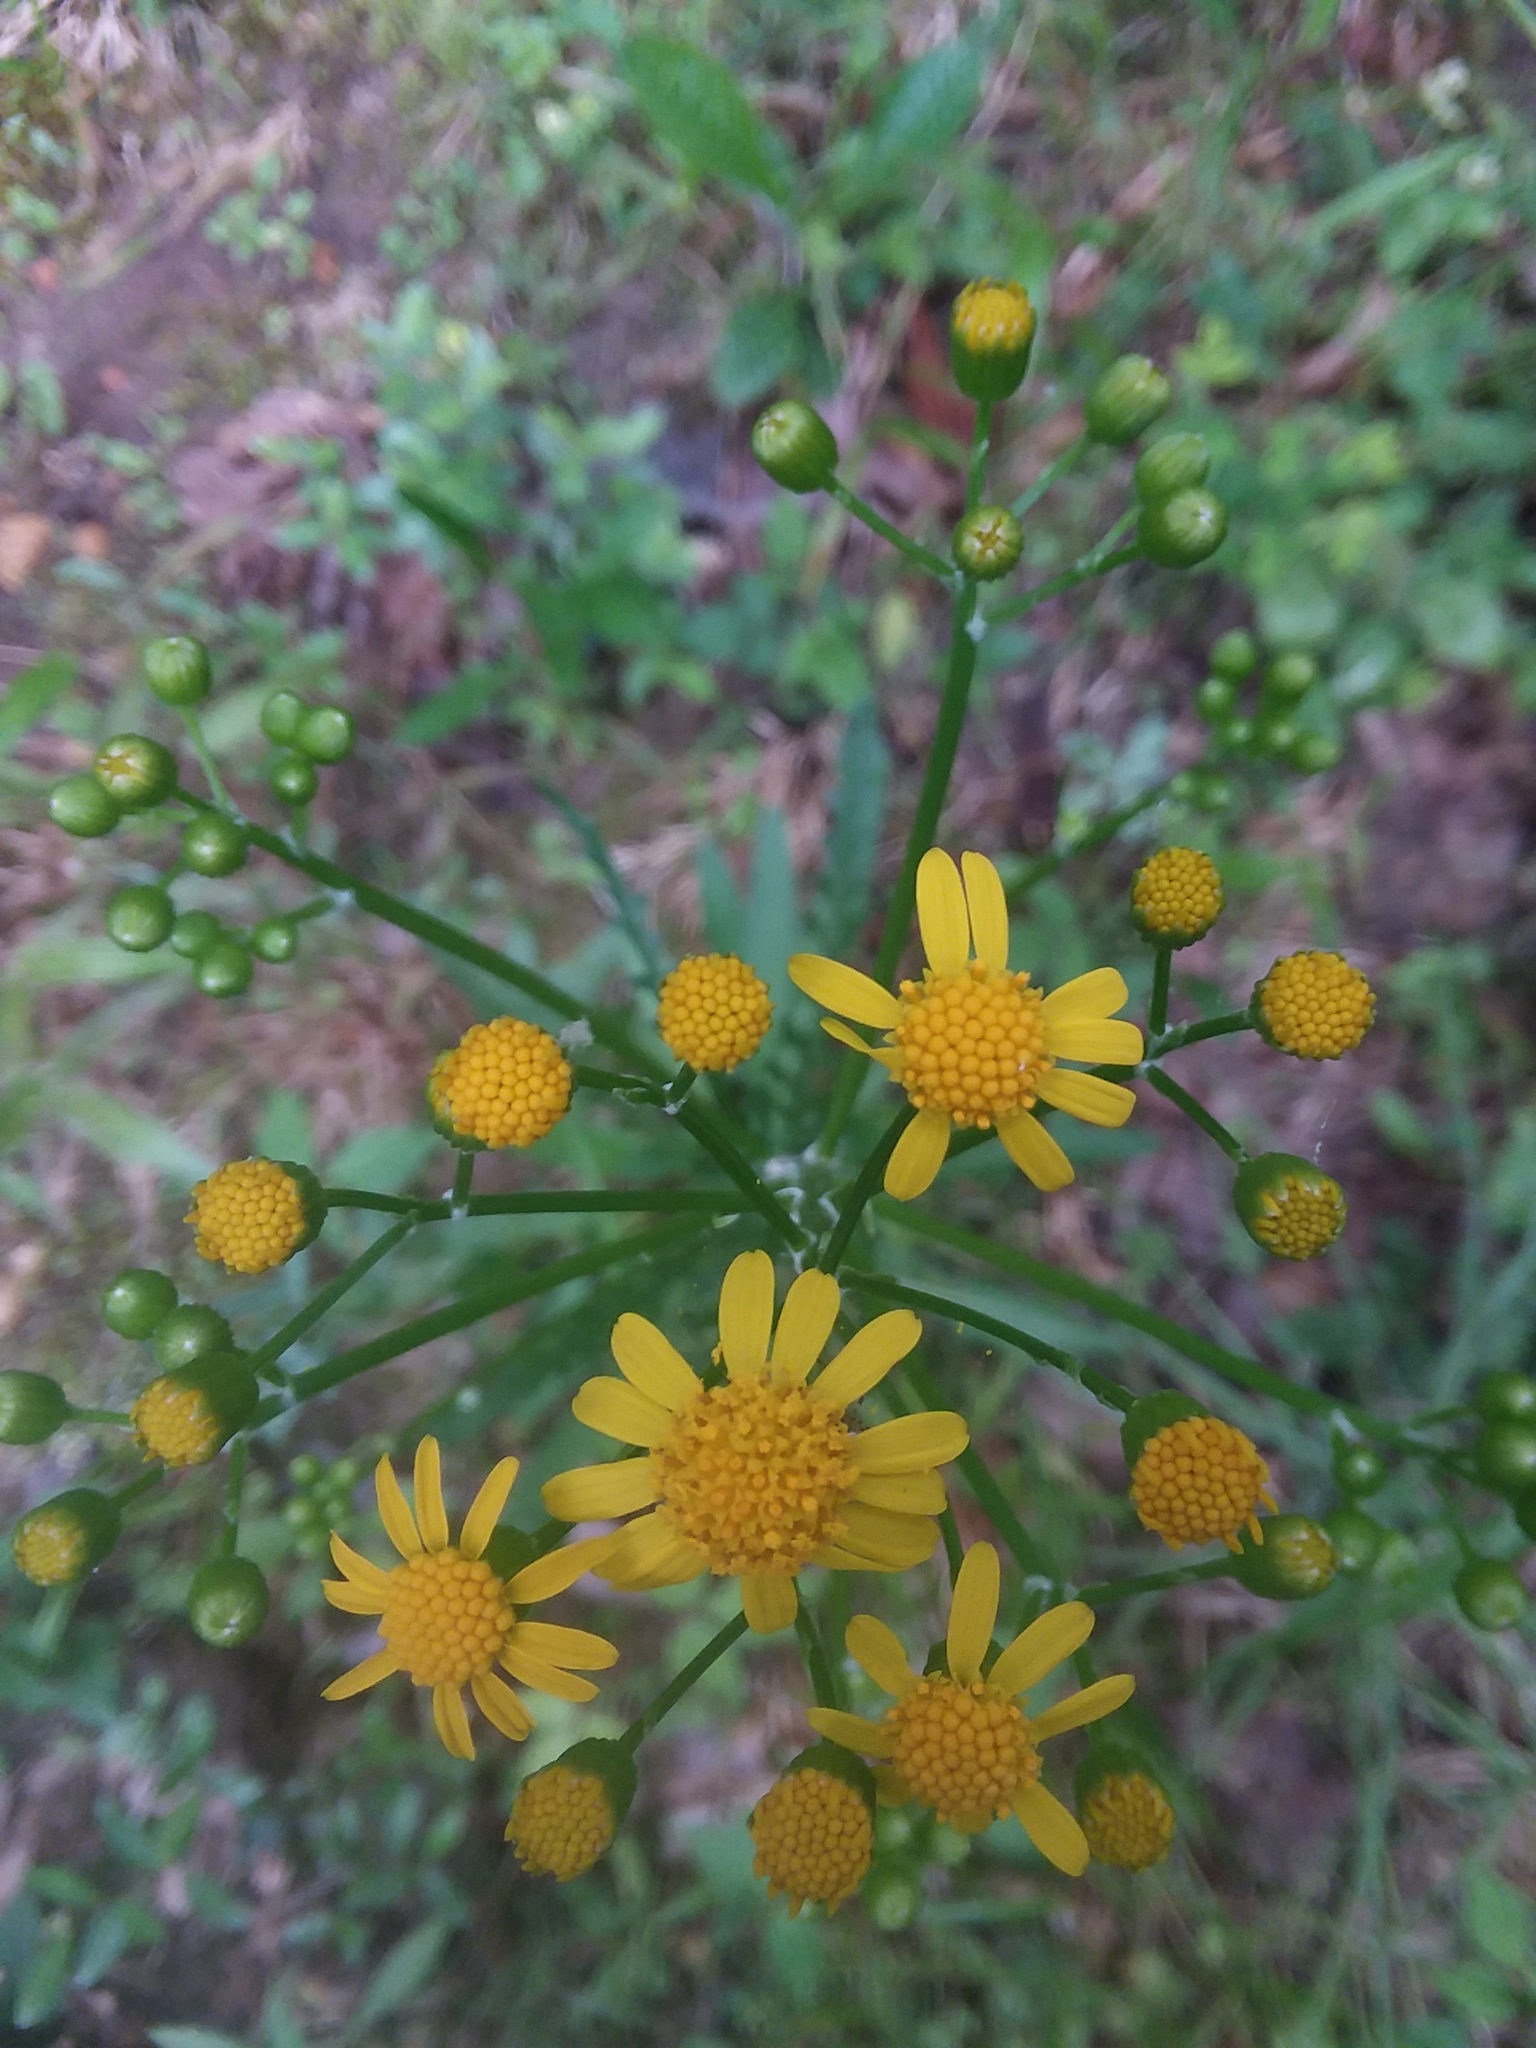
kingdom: Plantae
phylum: Tracheophyta
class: Magnoliopsida
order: Asterales
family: Asteraceae
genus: Packera
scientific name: Packera anonyma
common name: Small ragwort
